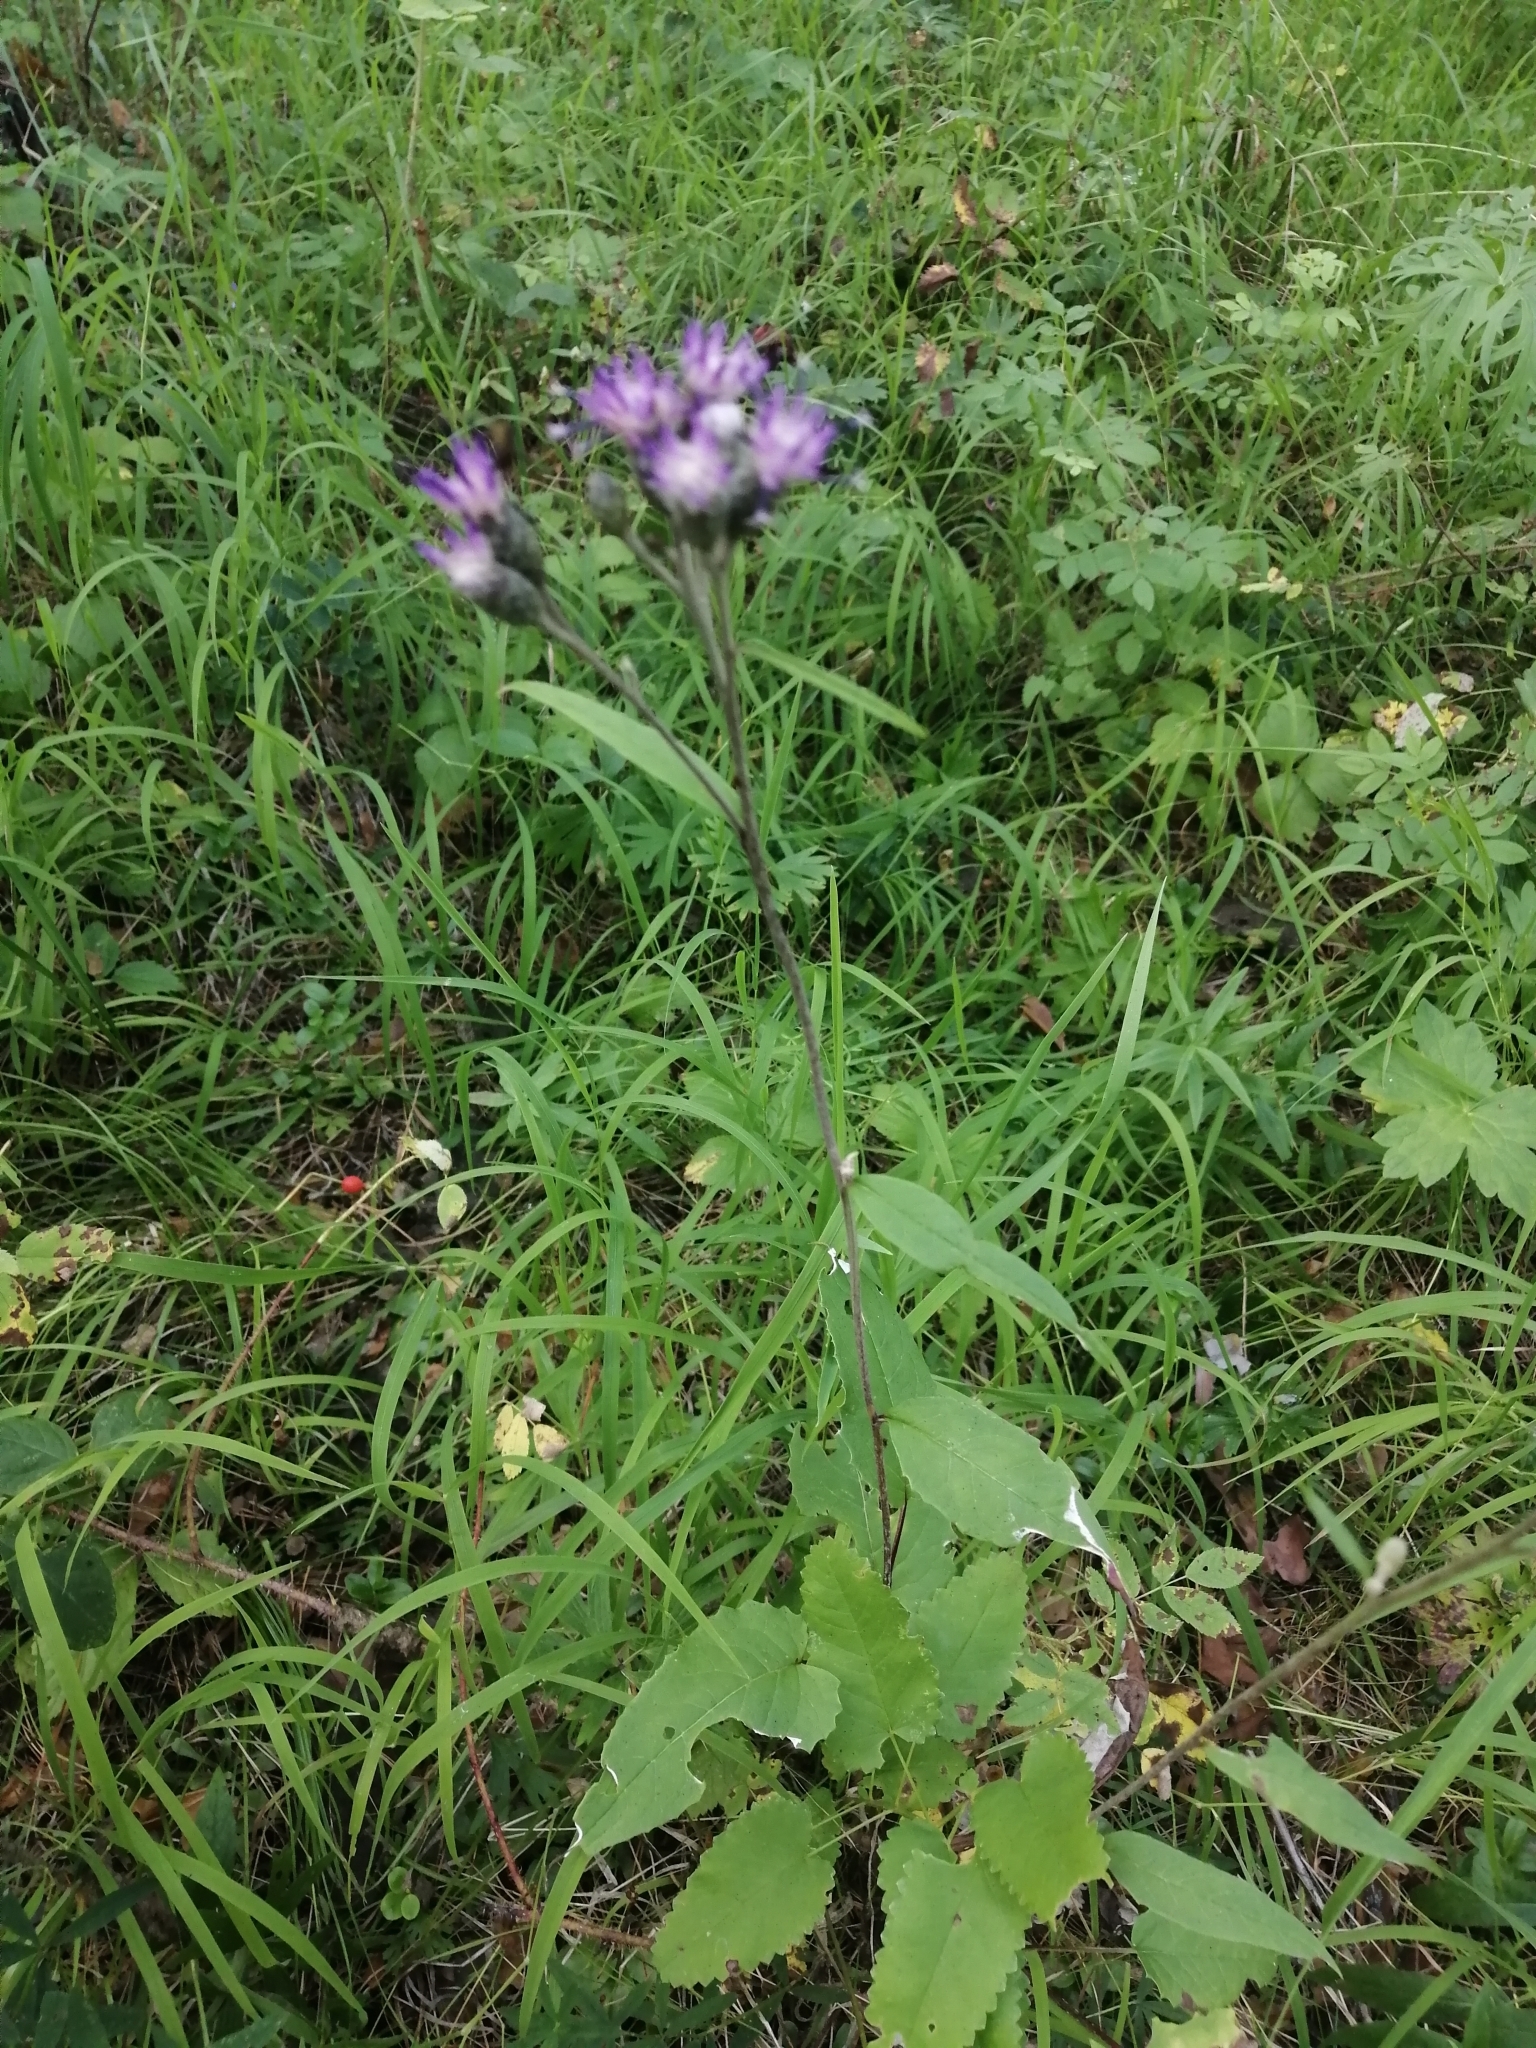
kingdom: Plantae
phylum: Tracheophyta
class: Magnoliopsida
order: Asterales
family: Asteraceae
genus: Saussurea
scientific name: Saussurea controversa
